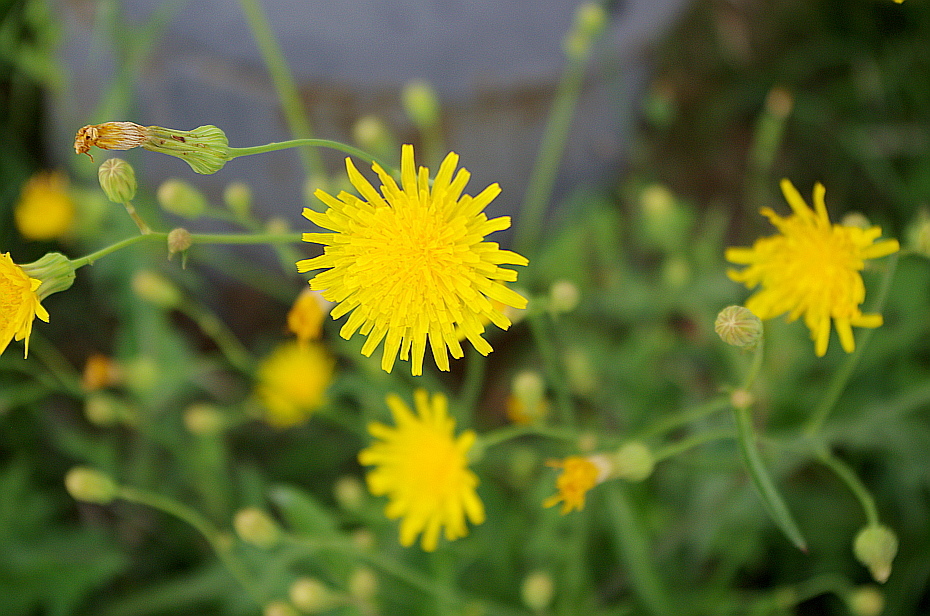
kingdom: Plantae
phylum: Tracheophyta
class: Magnoliopsida
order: Asterales
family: Asteraceae
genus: Sonchus
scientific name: Sonchus arvensis
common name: Perennial sow-thistle
